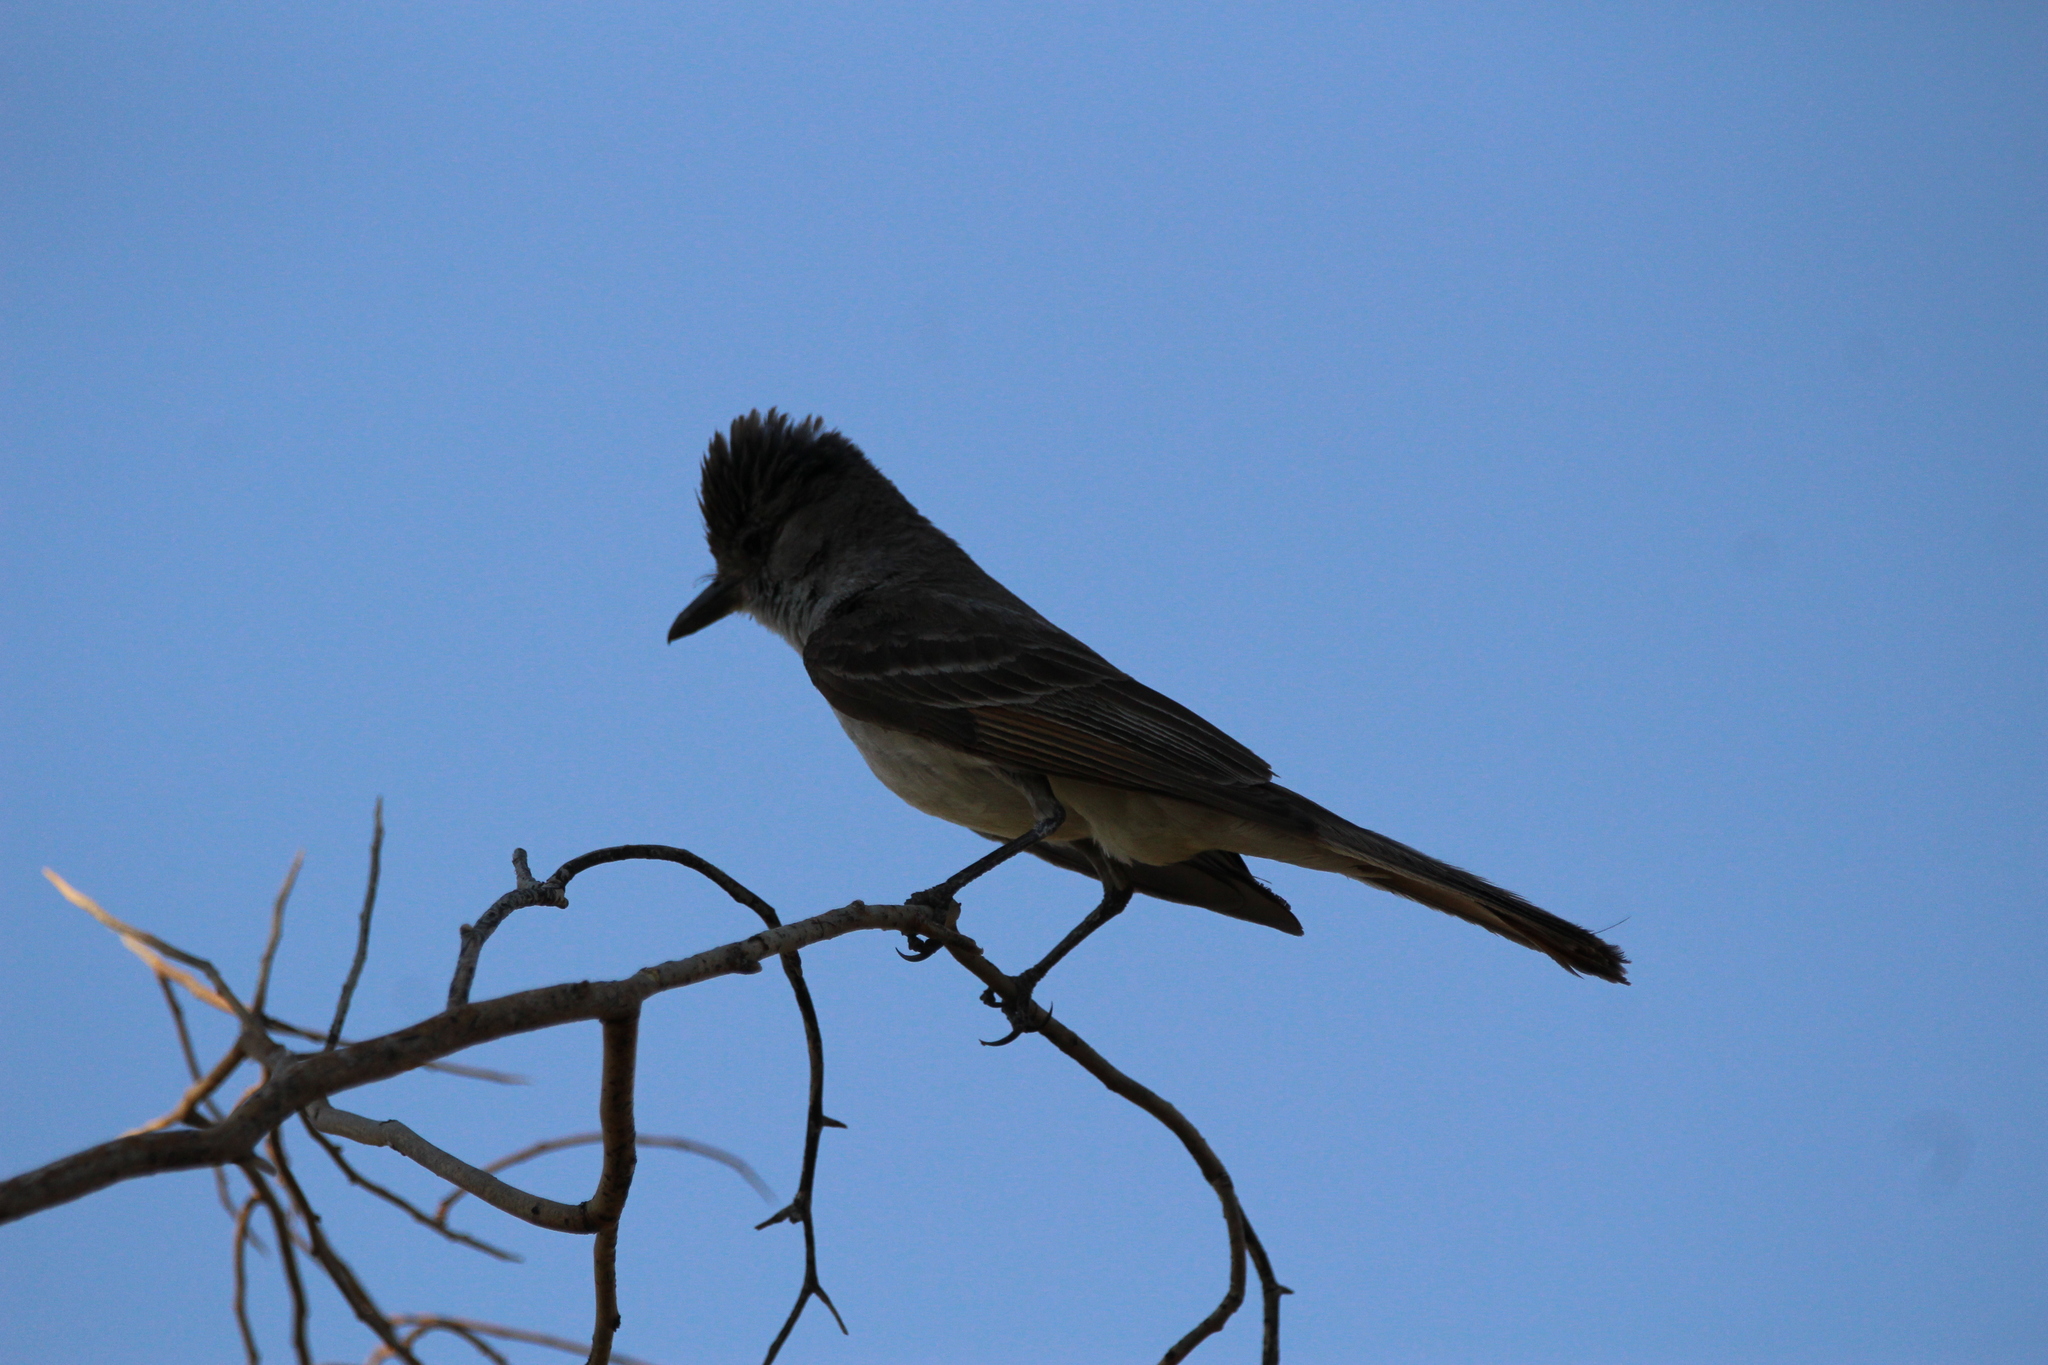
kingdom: Animalia
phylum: Chordata
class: Aves
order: Passeriformes
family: Tyrannidae
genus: Myiarchus
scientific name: Myiarchus cinerascens
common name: Ash-throated flycatcher
